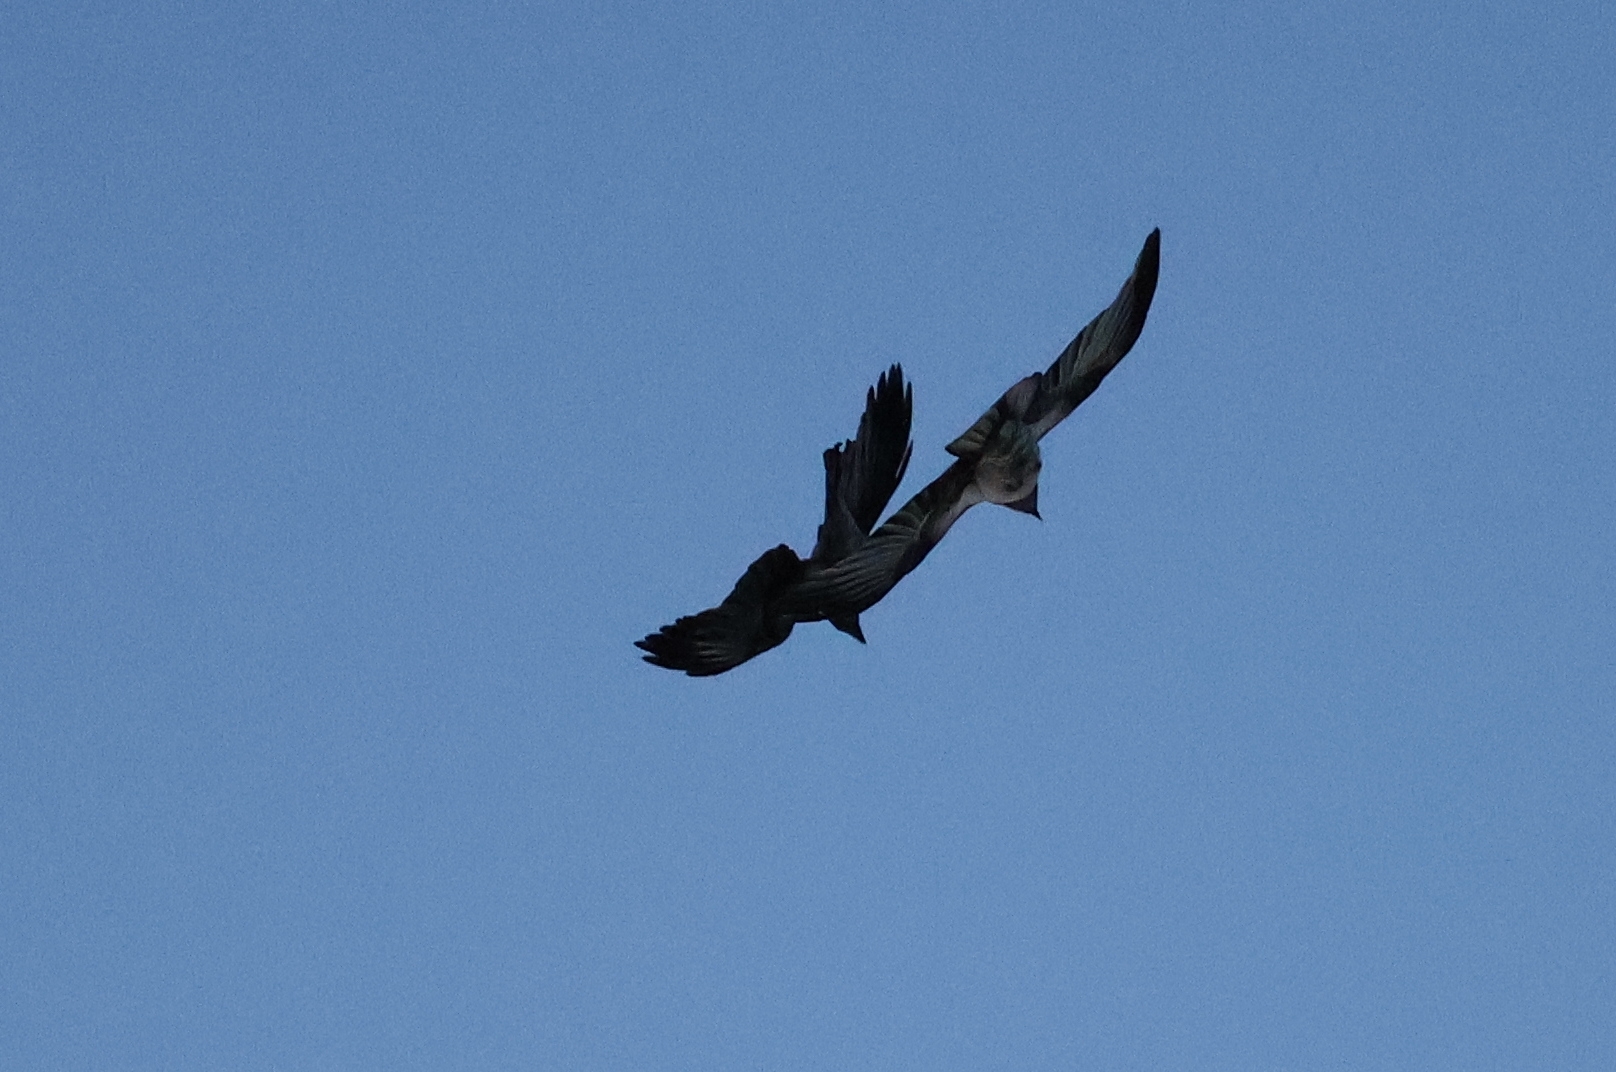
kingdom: Animalia
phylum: Chordata
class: Aves
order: Passeriformes
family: Corvidae
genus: Corvus
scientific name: Corvus cornix
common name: Hooded crow
